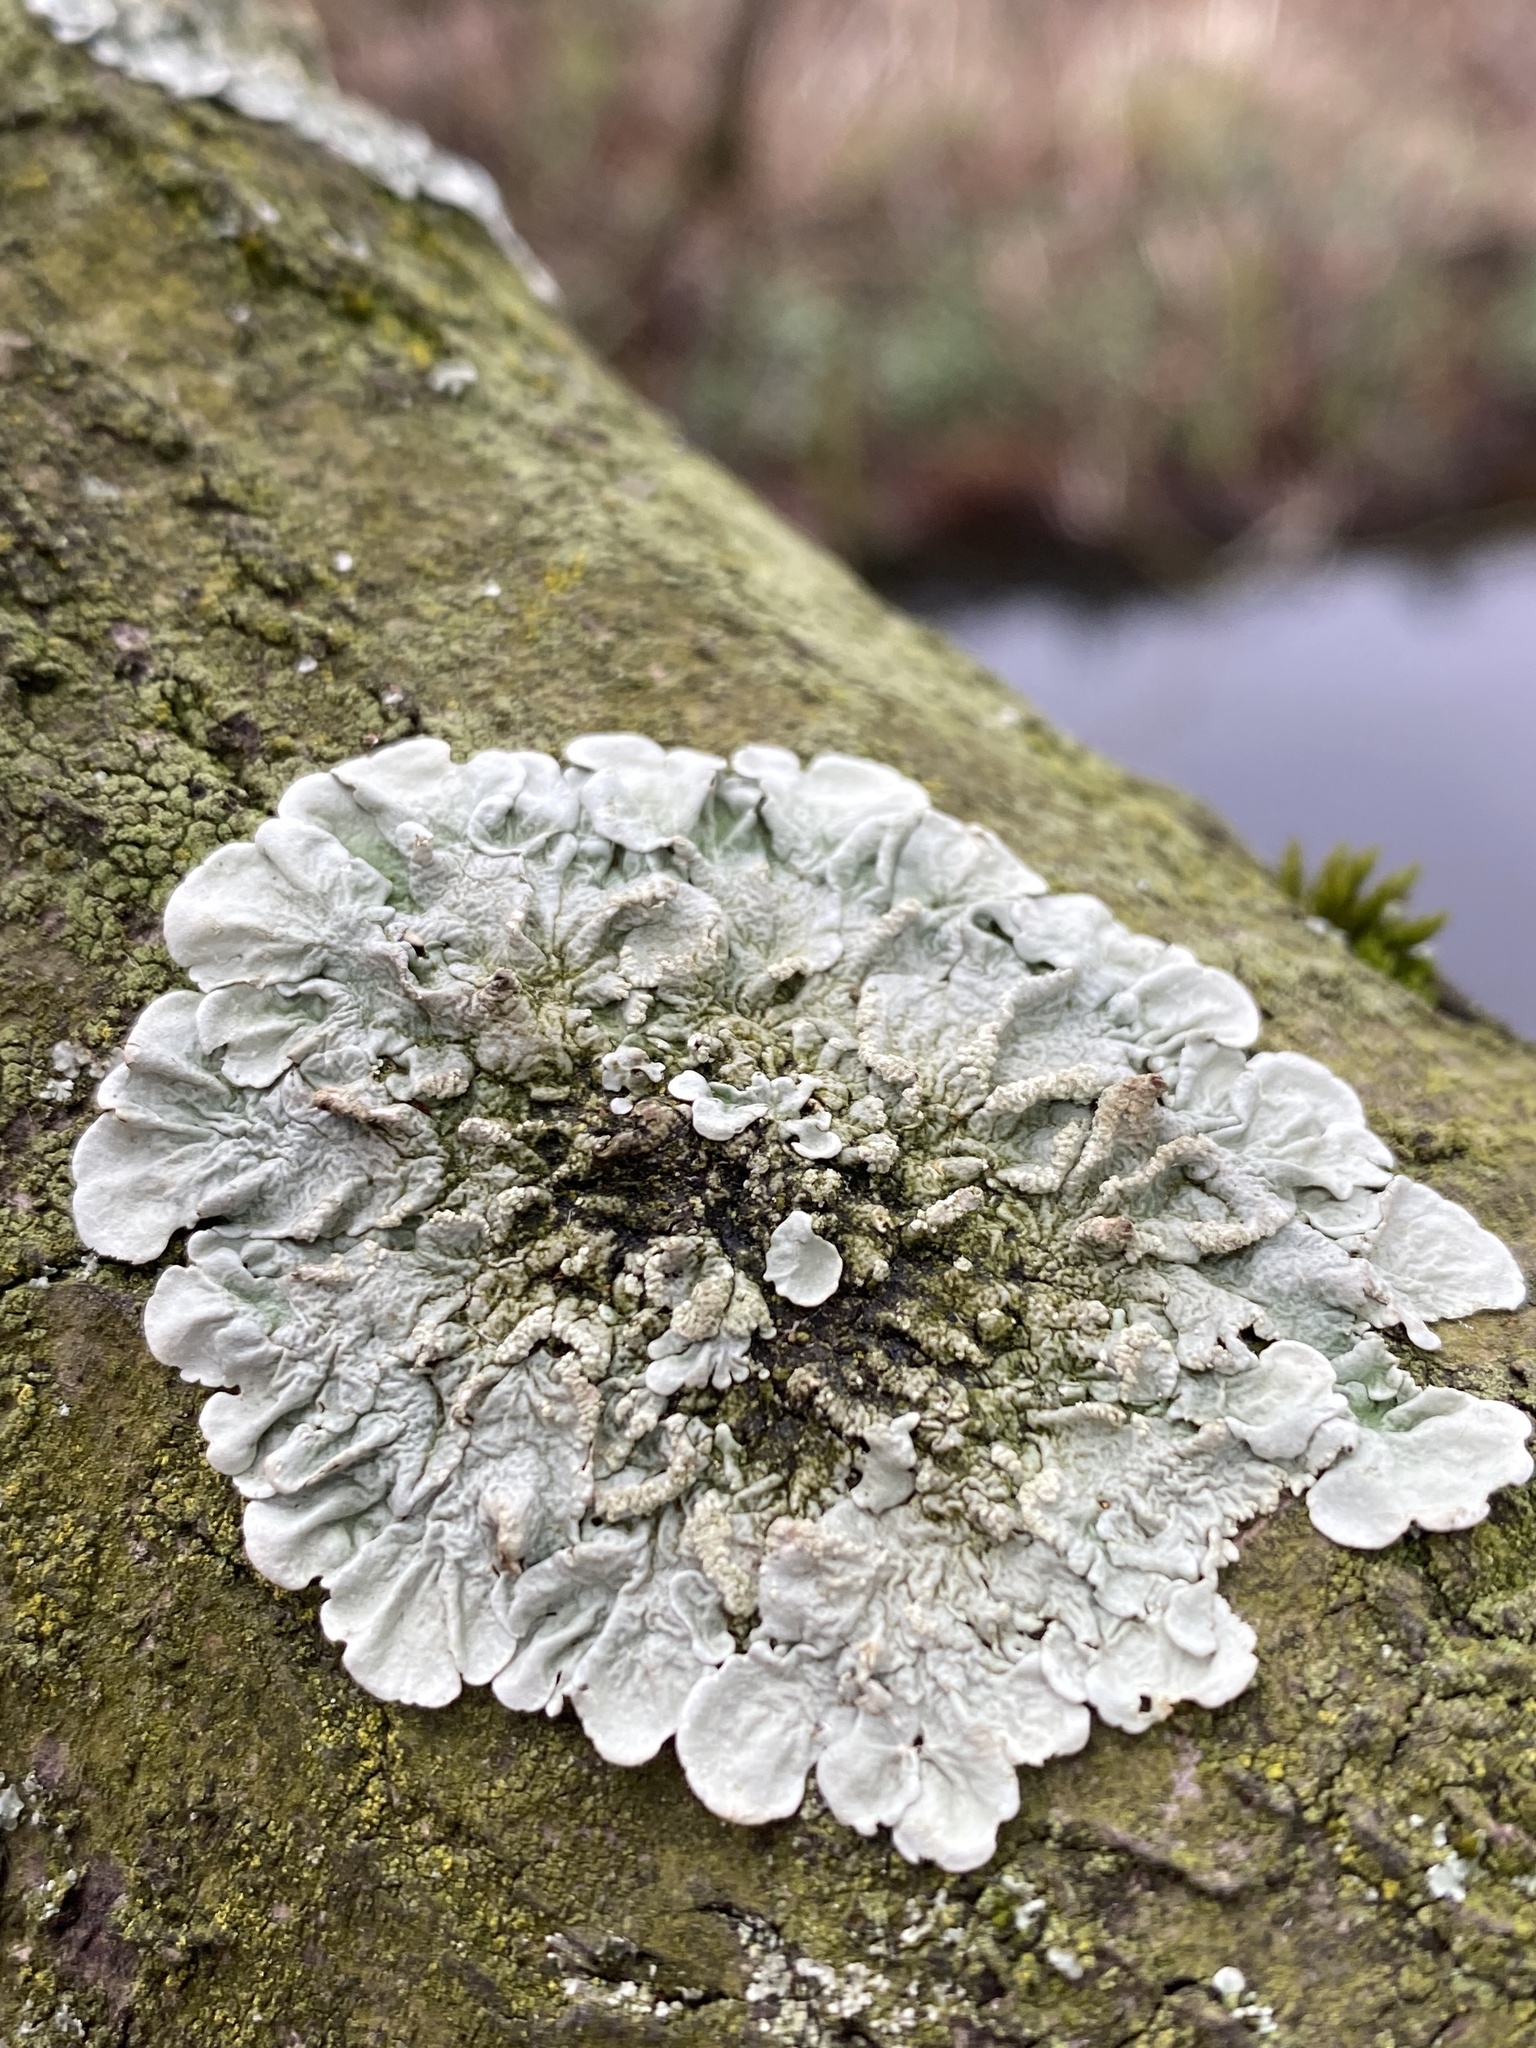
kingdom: Fungi
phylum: Ascomycota
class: Lecanoromycetes
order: Lecanorales
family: Parmeliaceae
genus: Flavoparmelia
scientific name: Flavoparmelia caperata
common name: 40-mile per hour lichen
